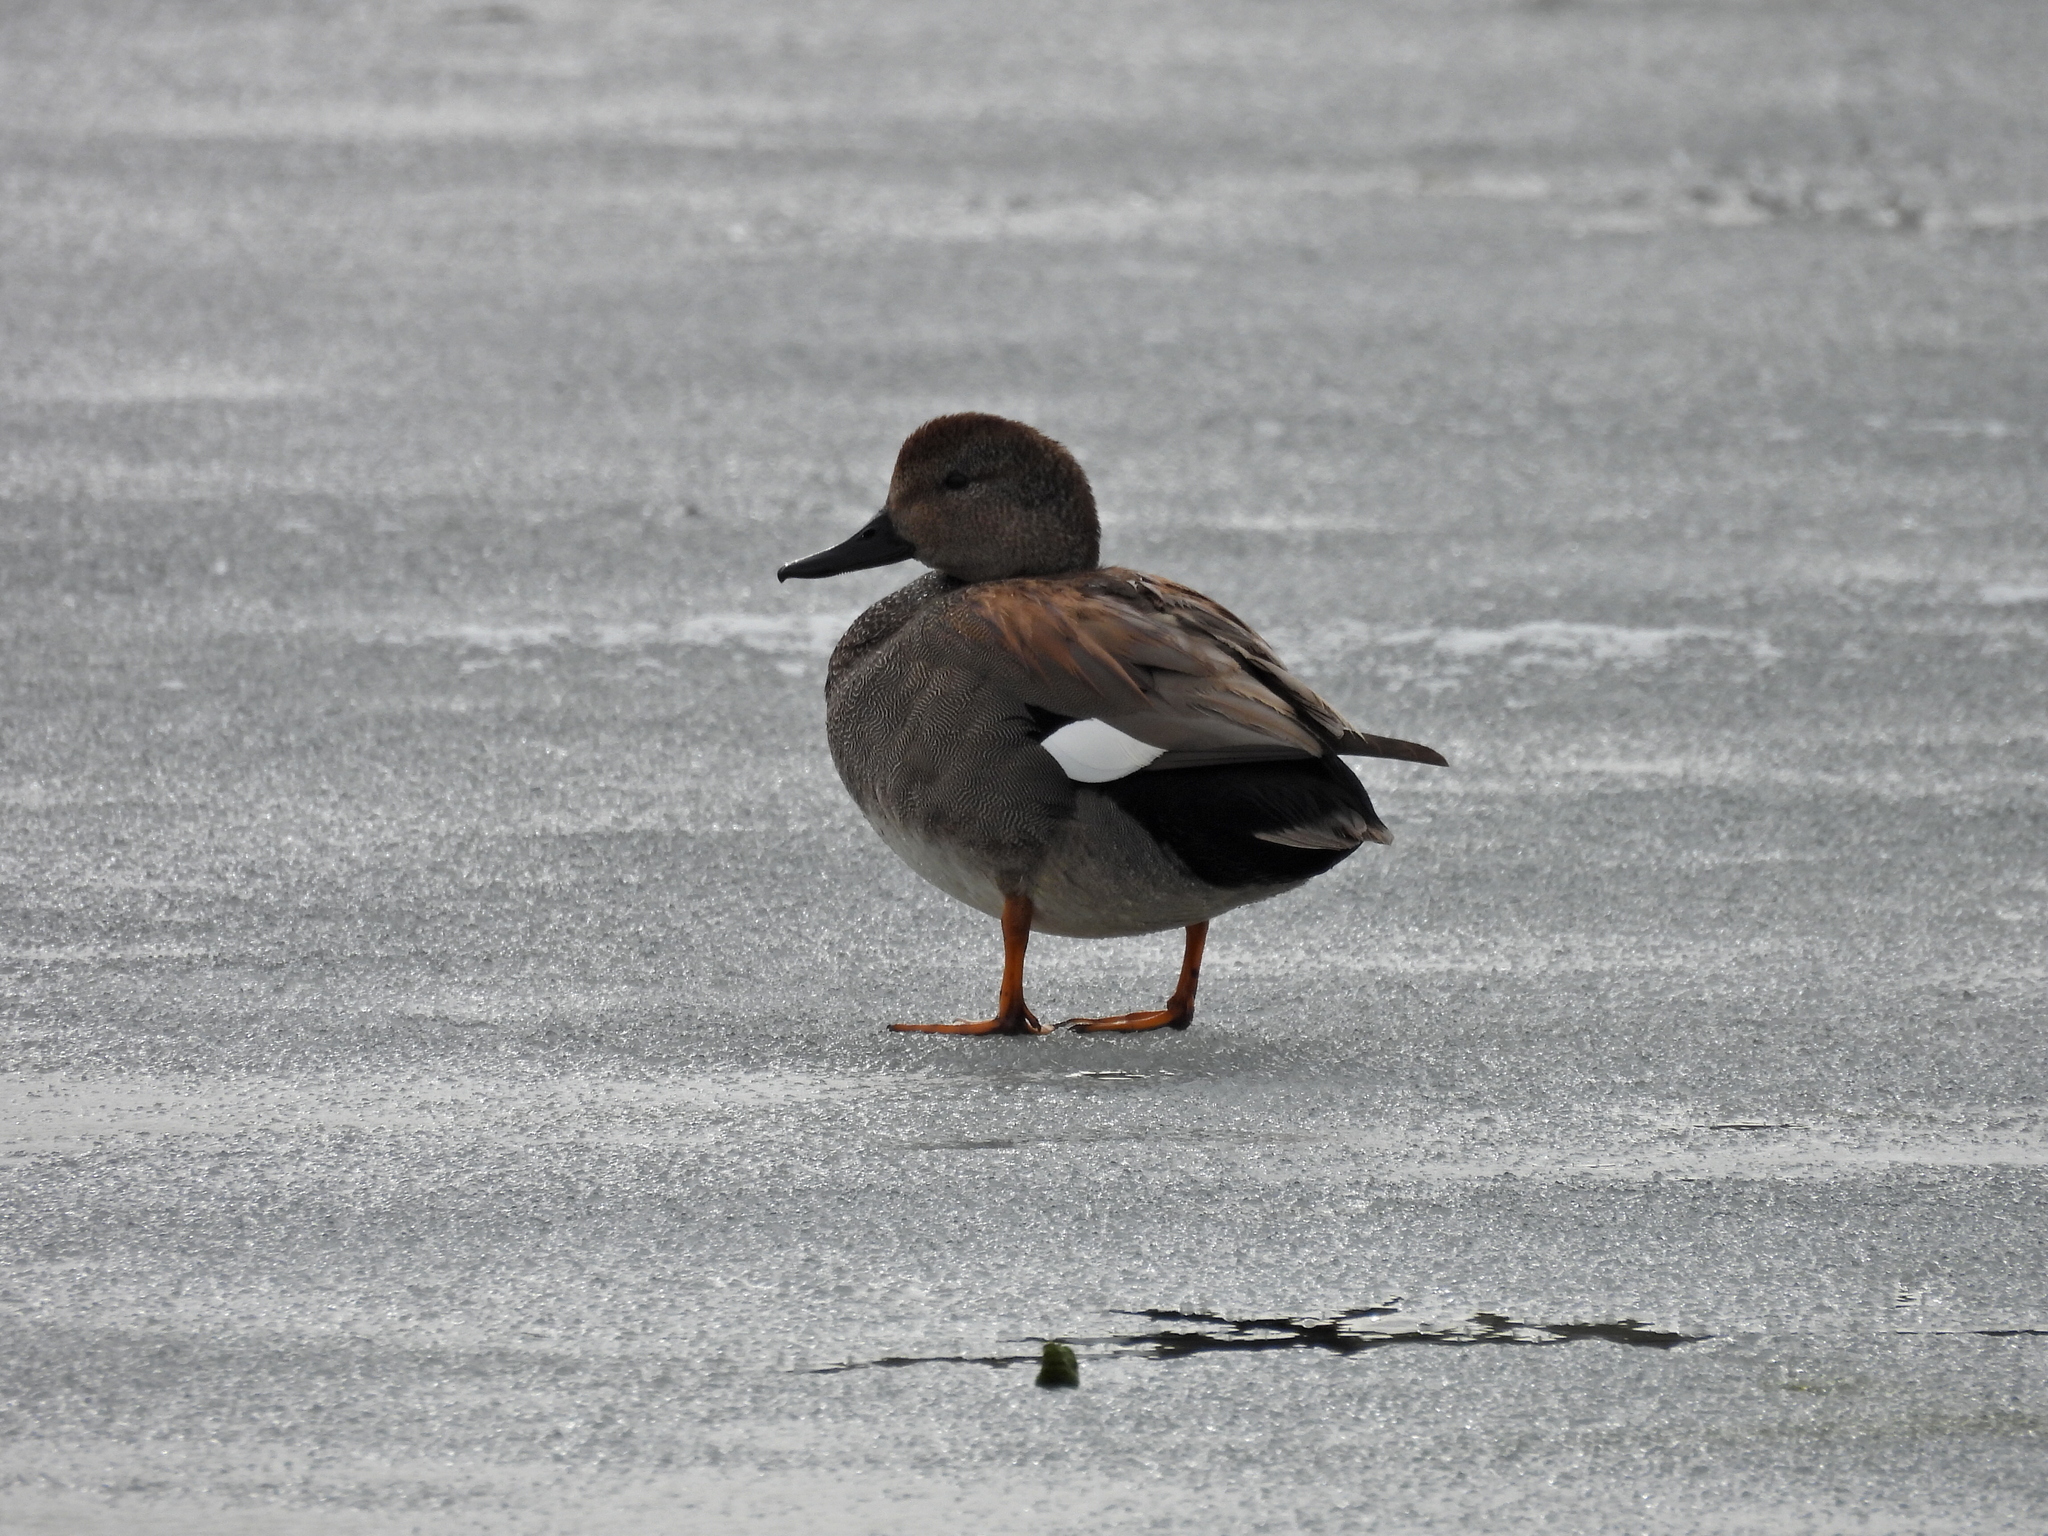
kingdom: Animalia
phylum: Chordata
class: Aves
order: Anseriformes
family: Anatidae
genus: Mareca
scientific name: Mareca strepera
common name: Gadwall
